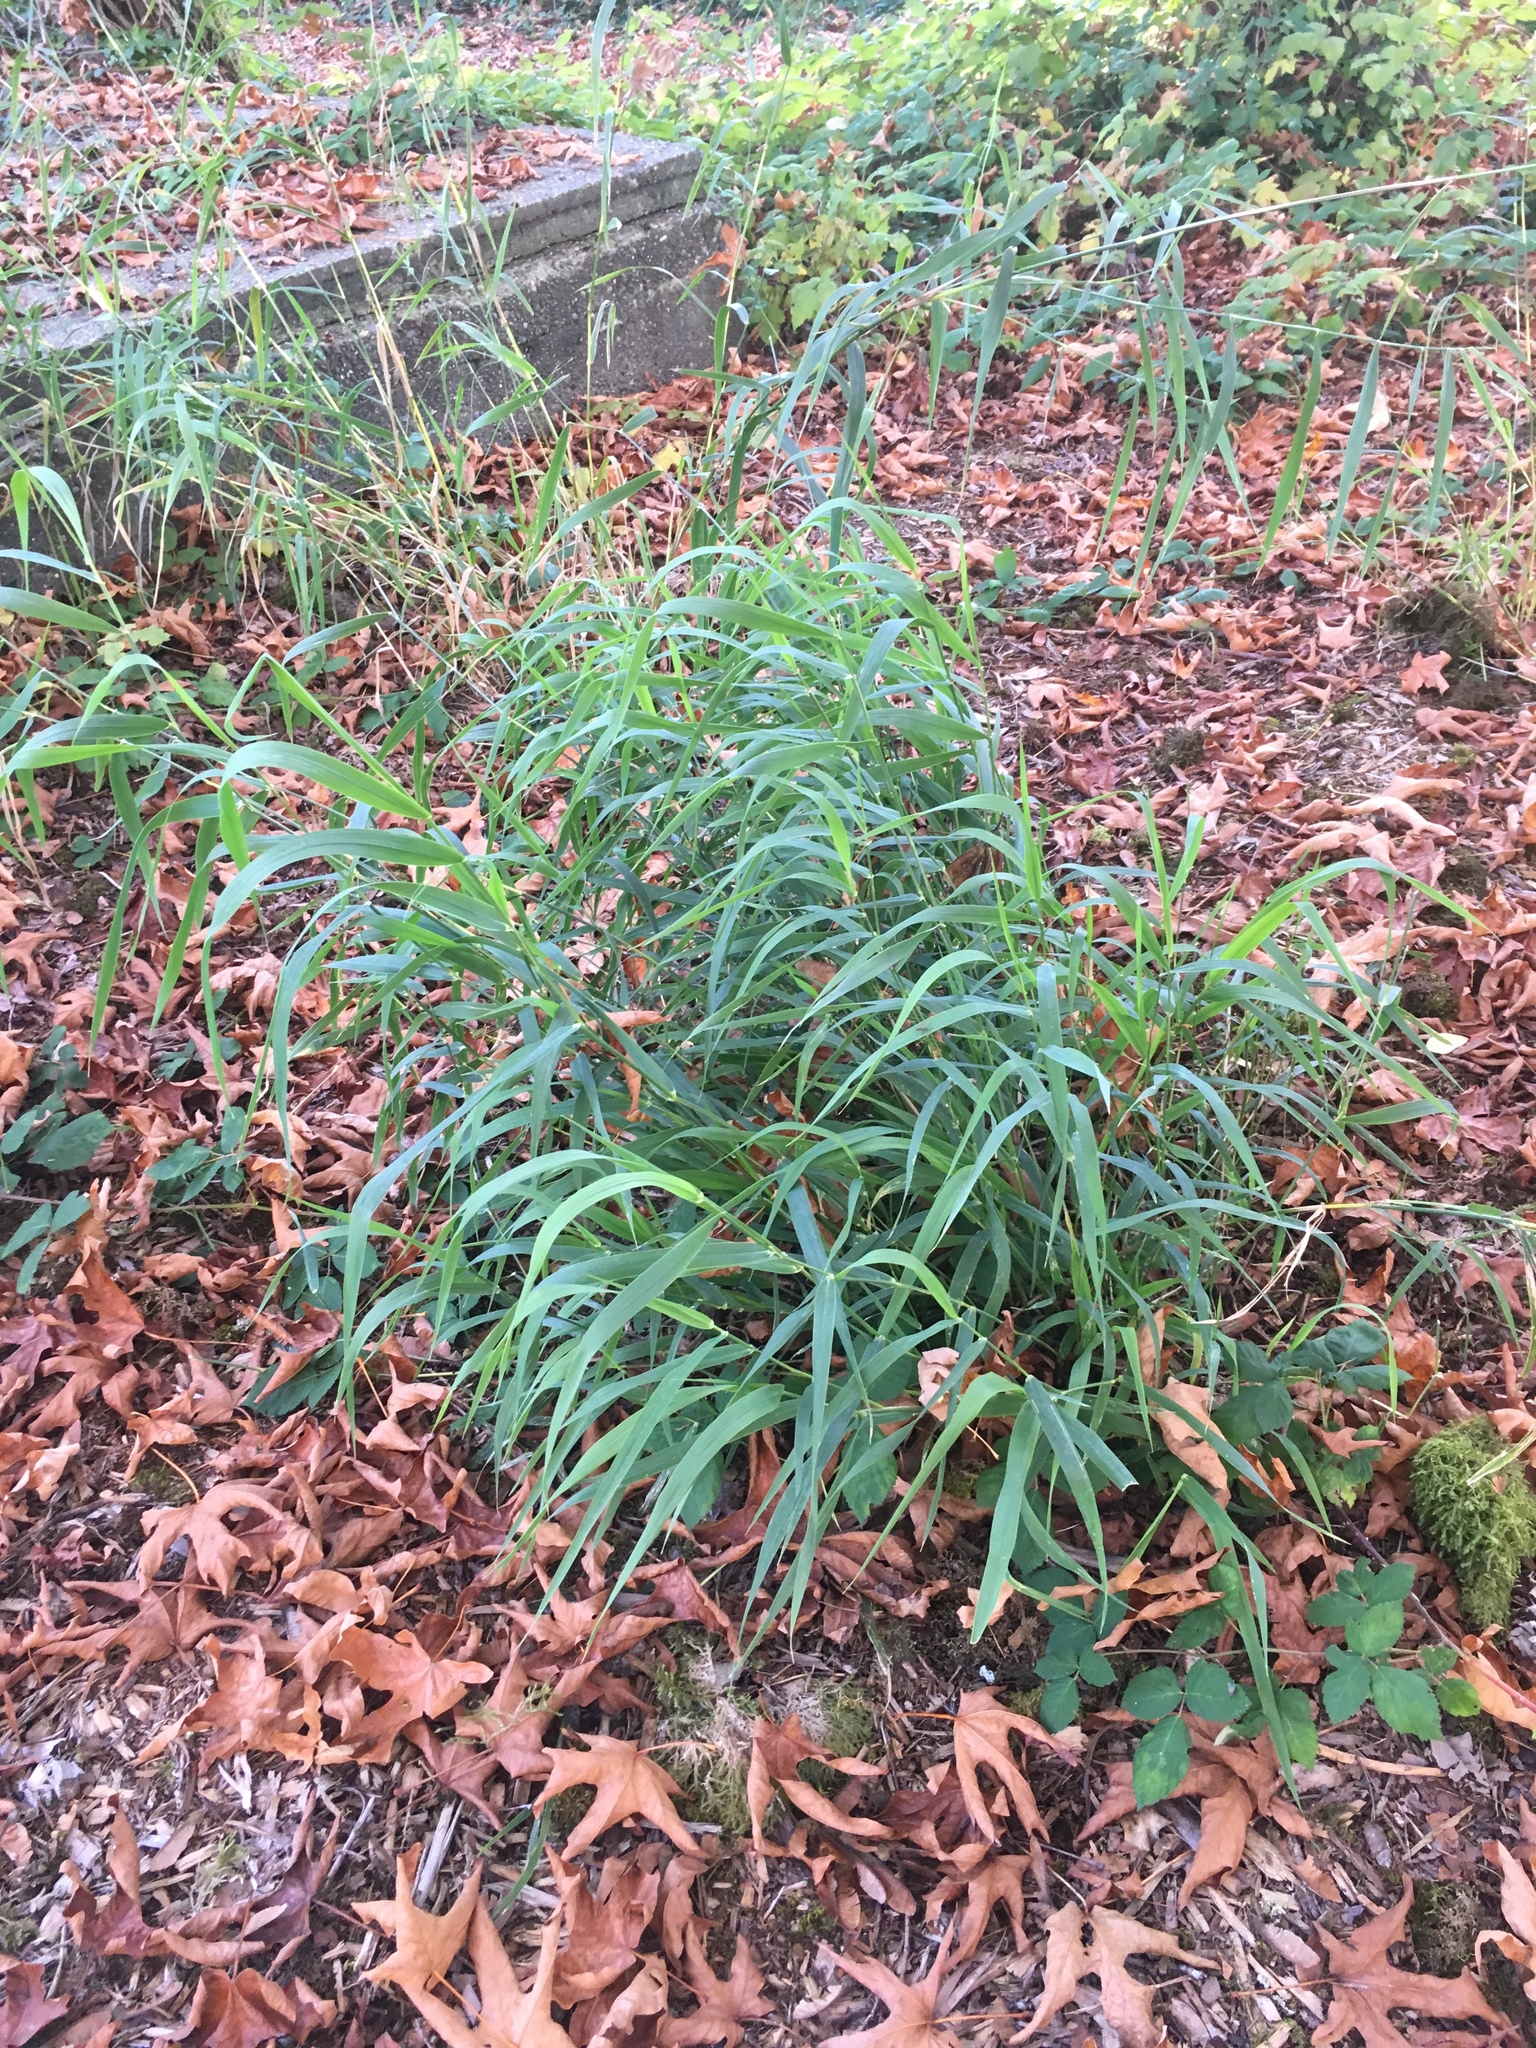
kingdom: Plantae
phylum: Tracheophyta
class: Liliopsida
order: Poales
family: Poaceae
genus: Phalaris
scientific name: Phalaris arundinacea
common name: Reed canary-grass
